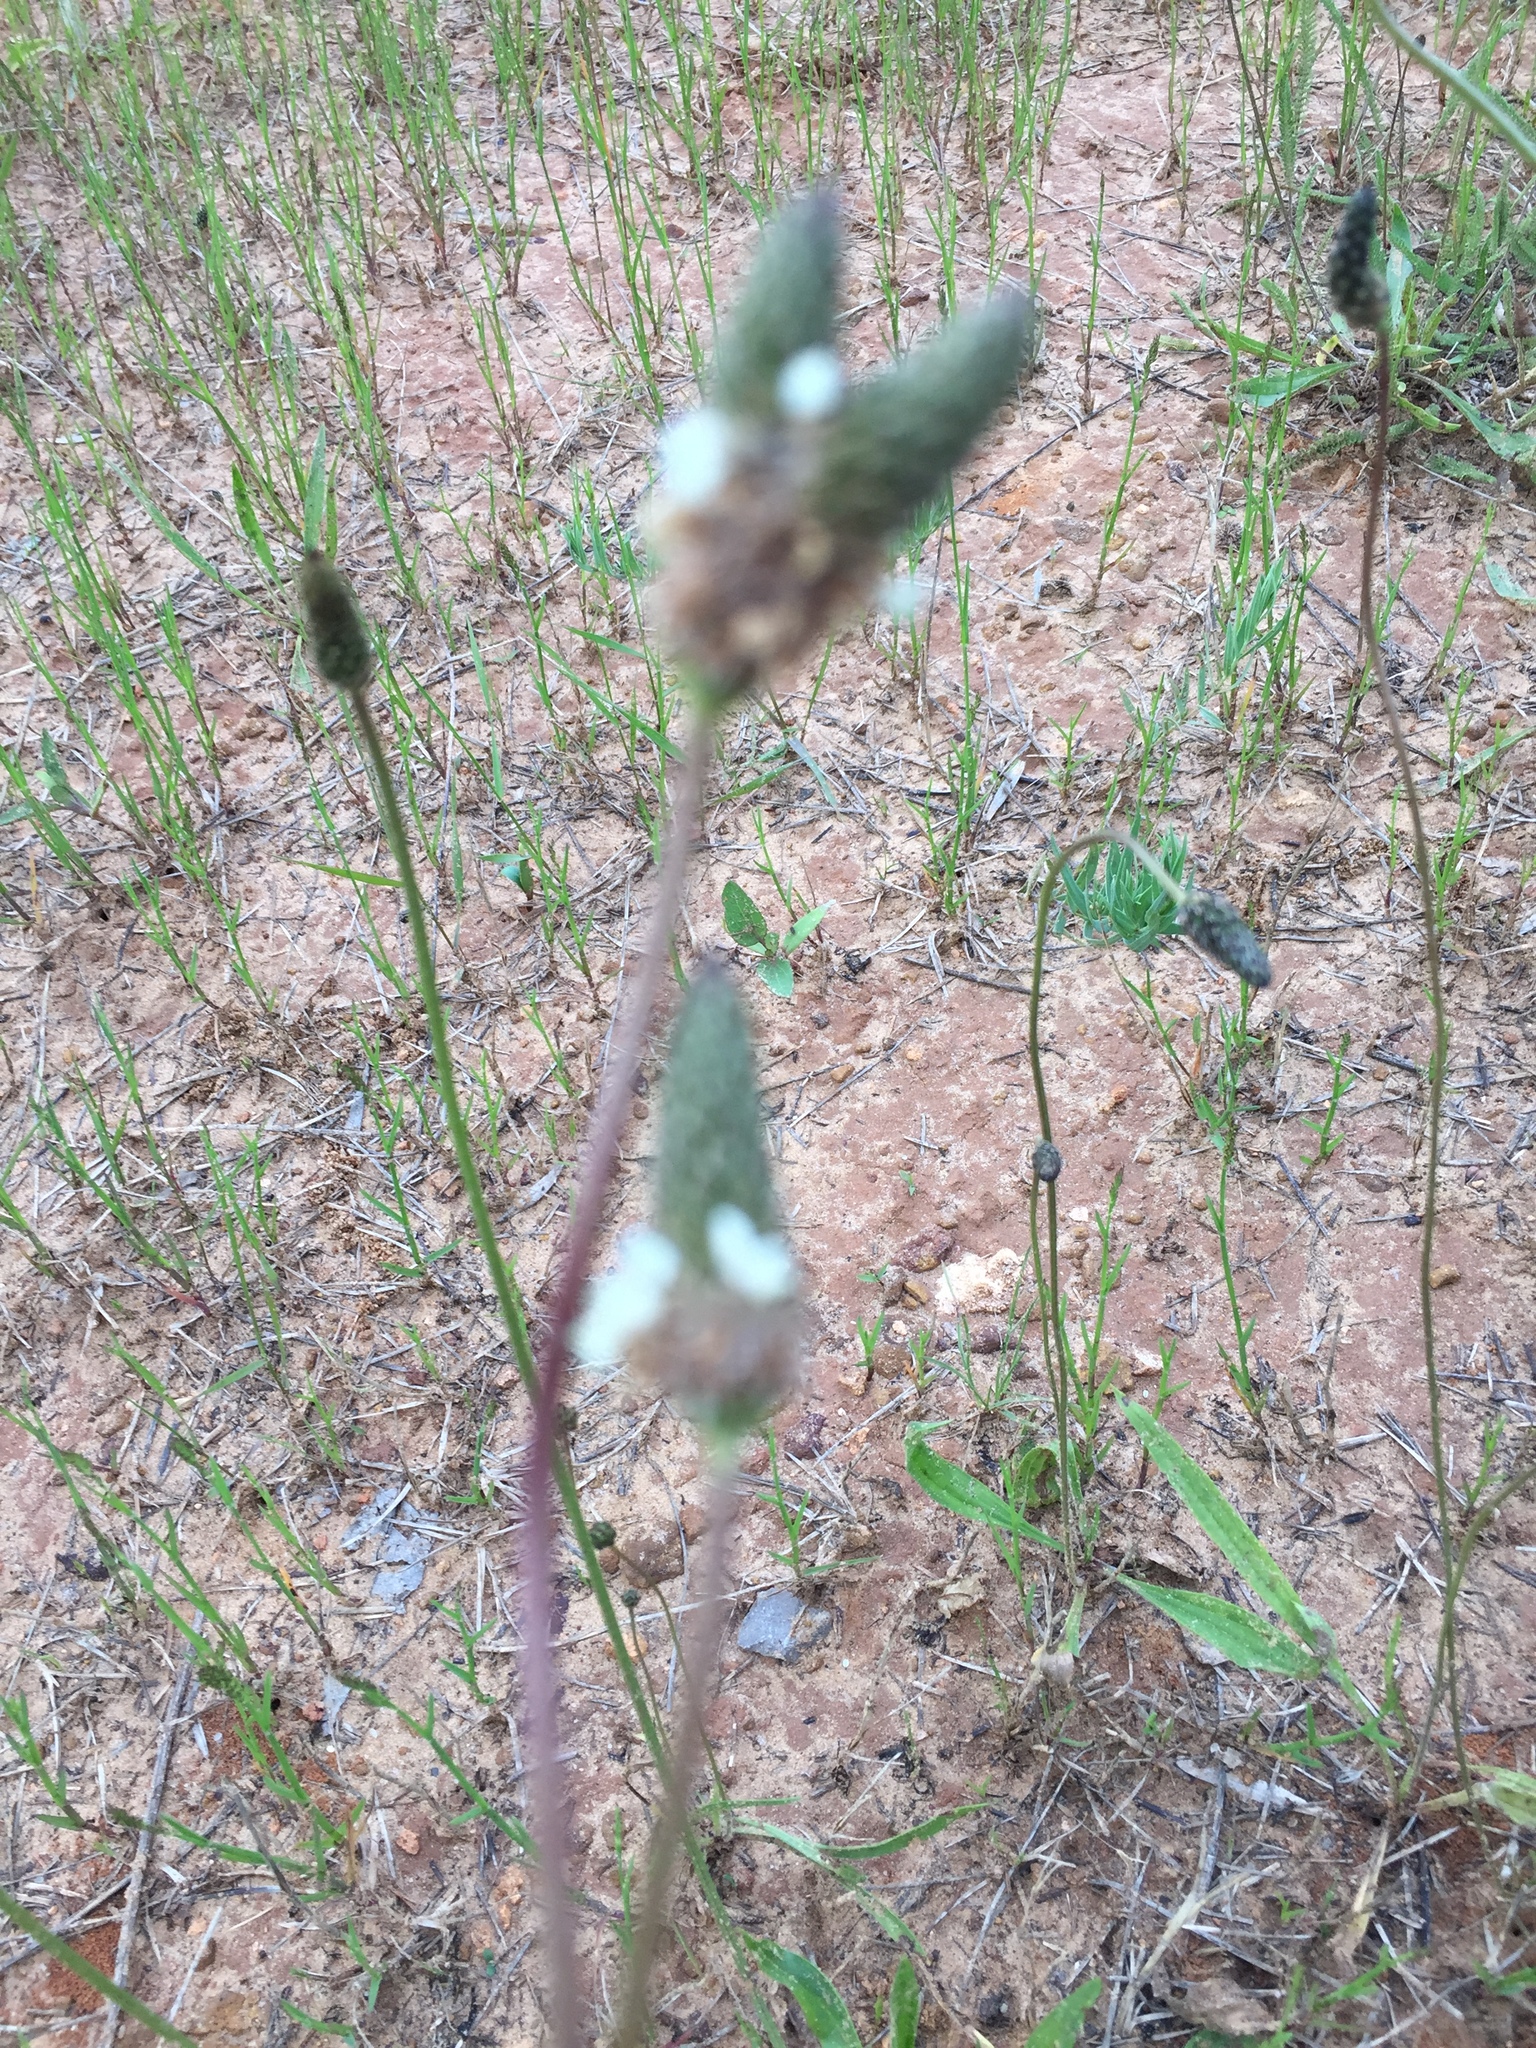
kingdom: Plantae
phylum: Tracheophyta
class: Magnoliopsida
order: Lamiales
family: Plantaginaceae
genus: Plantago
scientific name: Plantago lanceolata
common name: Ribwort plantain
